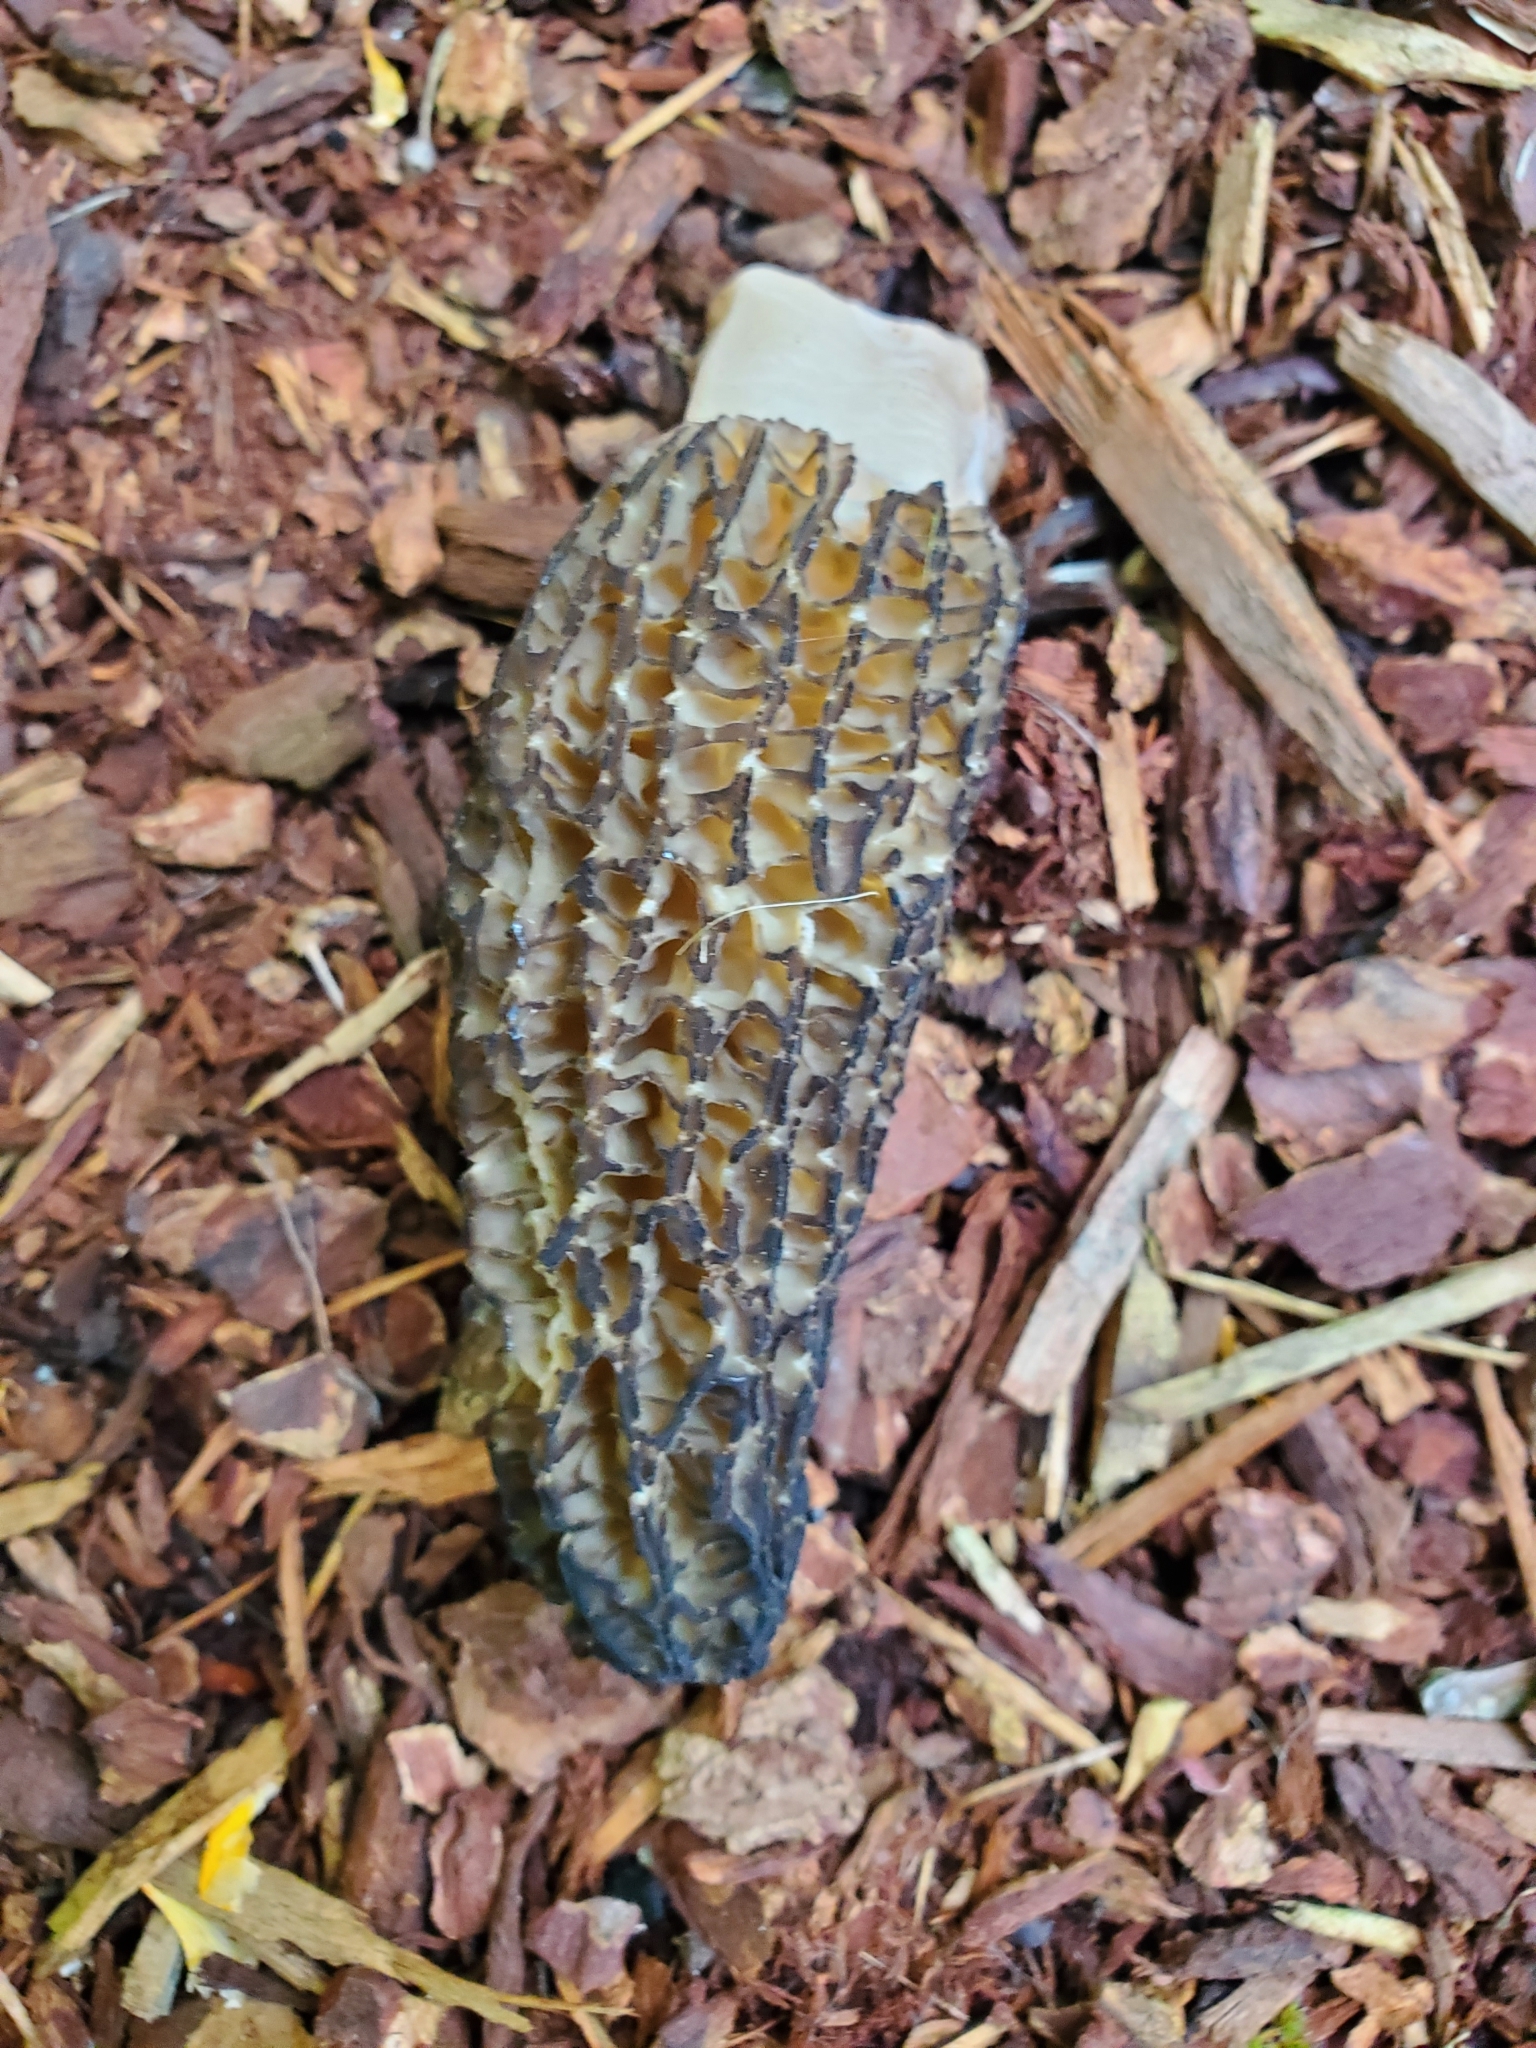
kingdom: Fungi
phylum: Ascomycota
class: Pezizomycetes
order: Pezizales
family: Morchellaceae
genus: Morchella
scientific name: Morchella importuna
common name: Landscaping black morel
